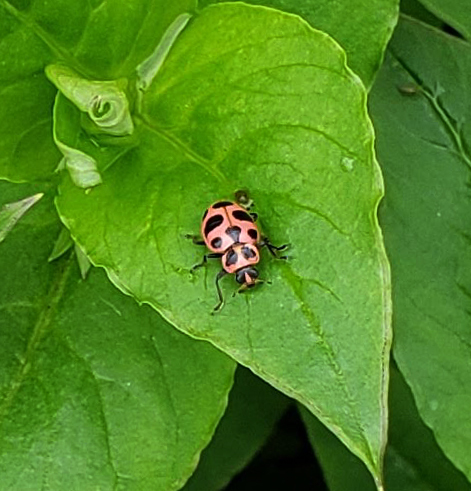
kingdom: Animalia
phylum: Arthropoda
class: Insecta
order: Coleoptera
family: Coccinellidae
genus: Coleomegilla
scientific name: Coleomegilla maculata
